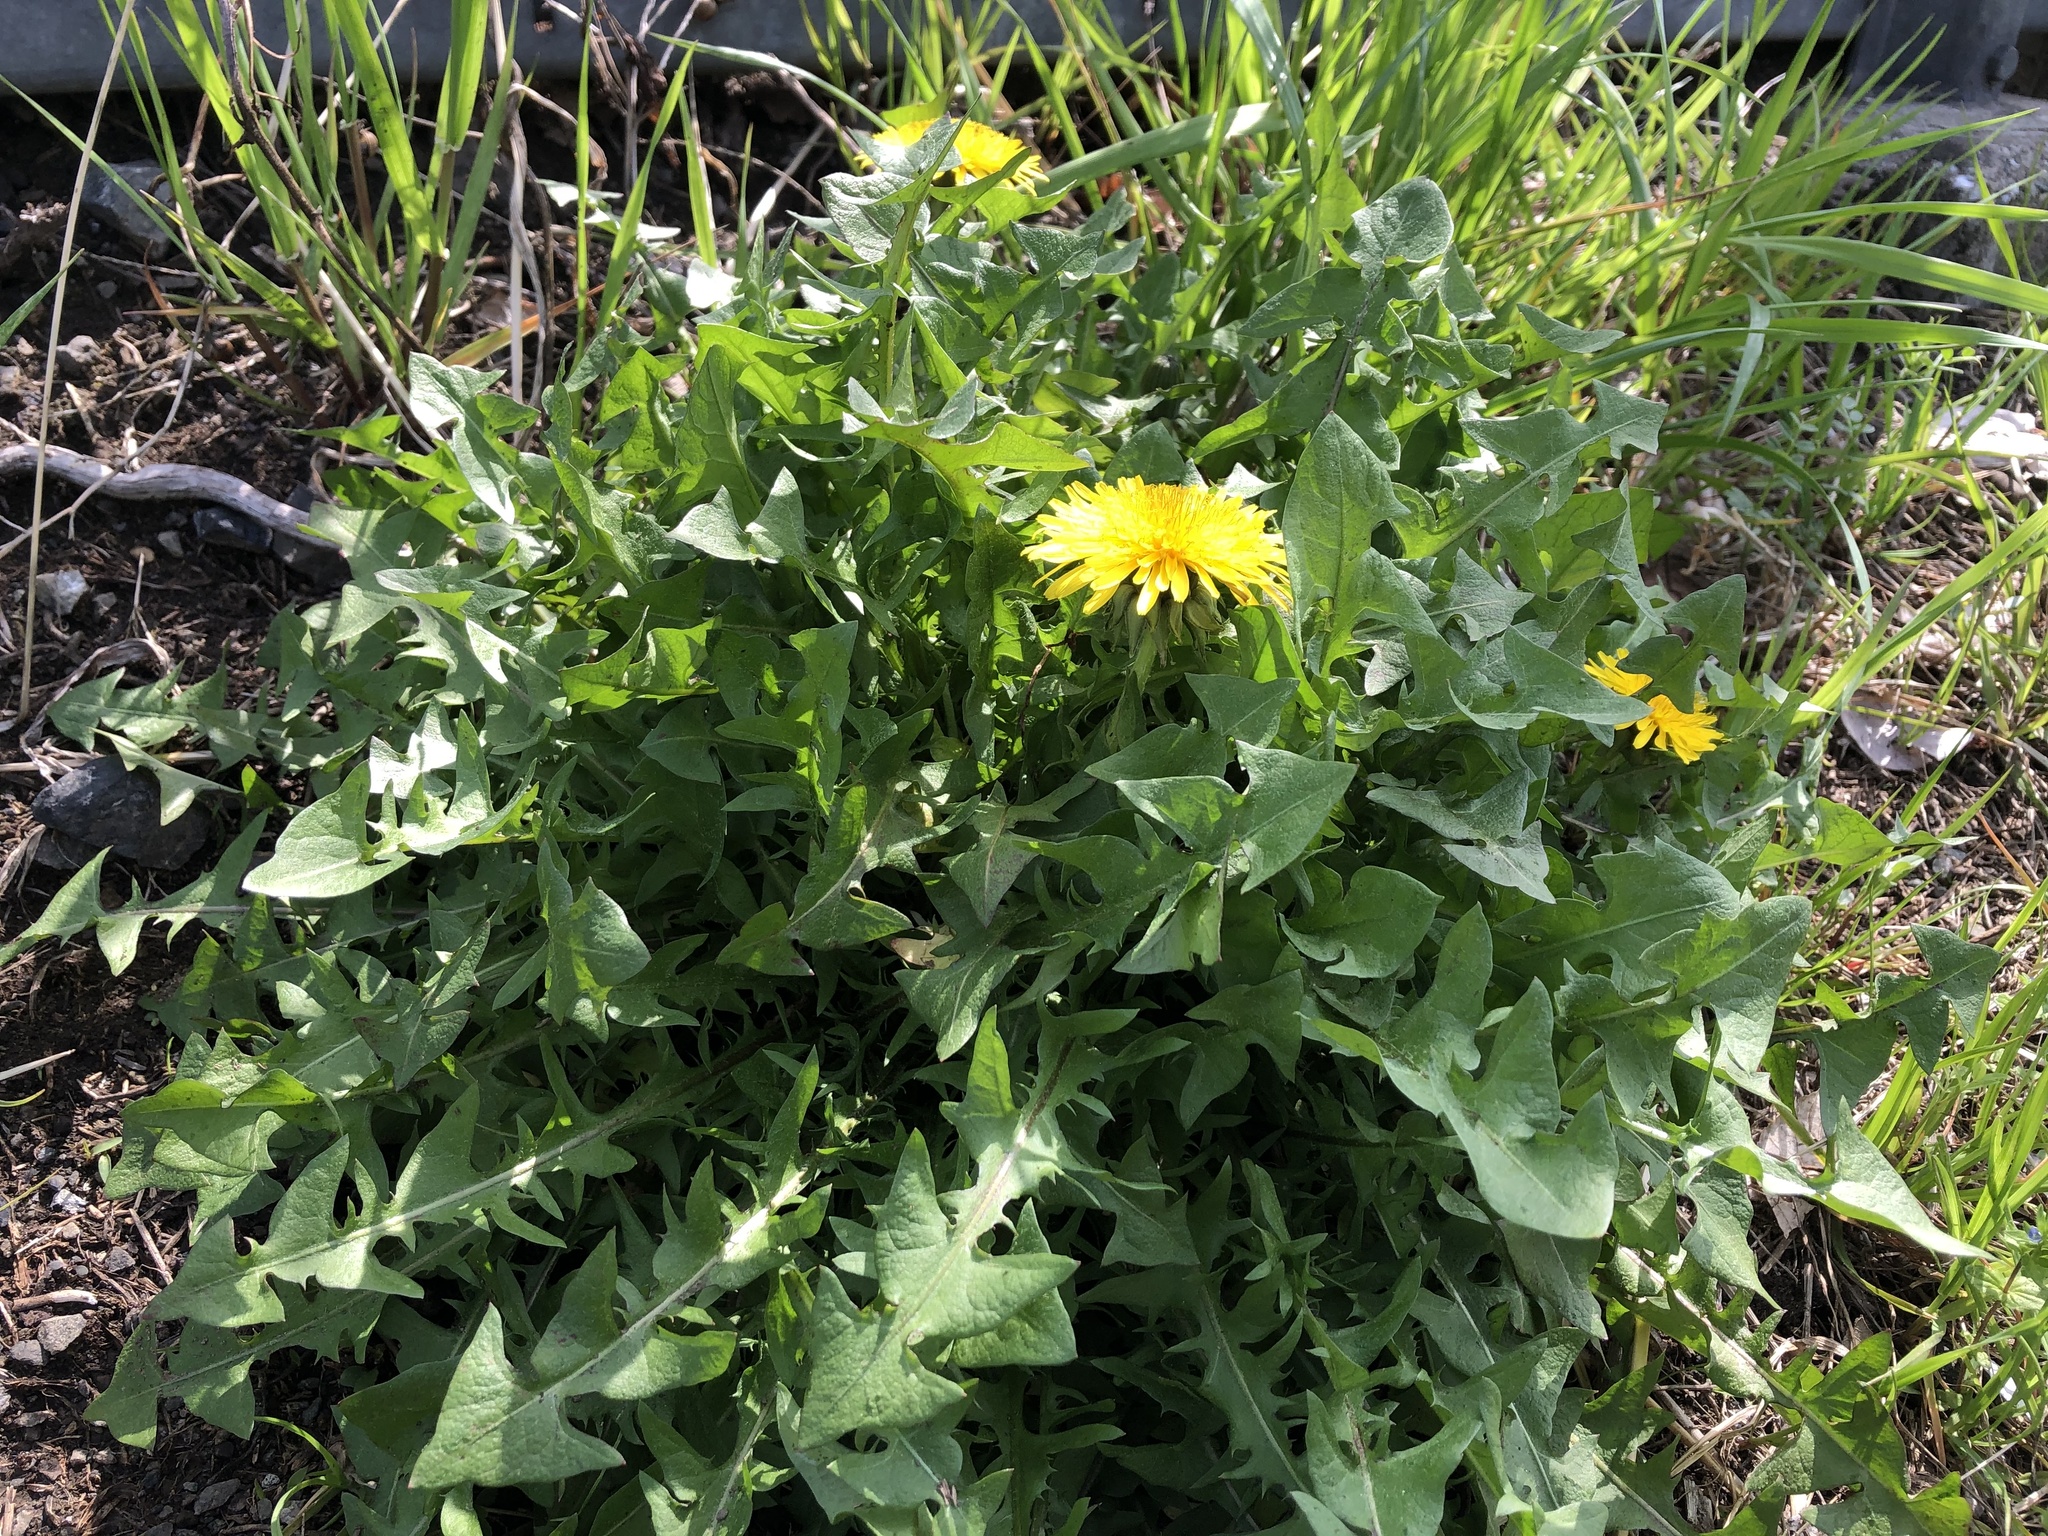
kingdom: Plantae
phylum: Tracheophyta
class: Magnoliopsida
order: Asterales
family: Asteraceae
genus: Taraxacum
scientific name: Taraxacum officinale
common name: Common dandelion
